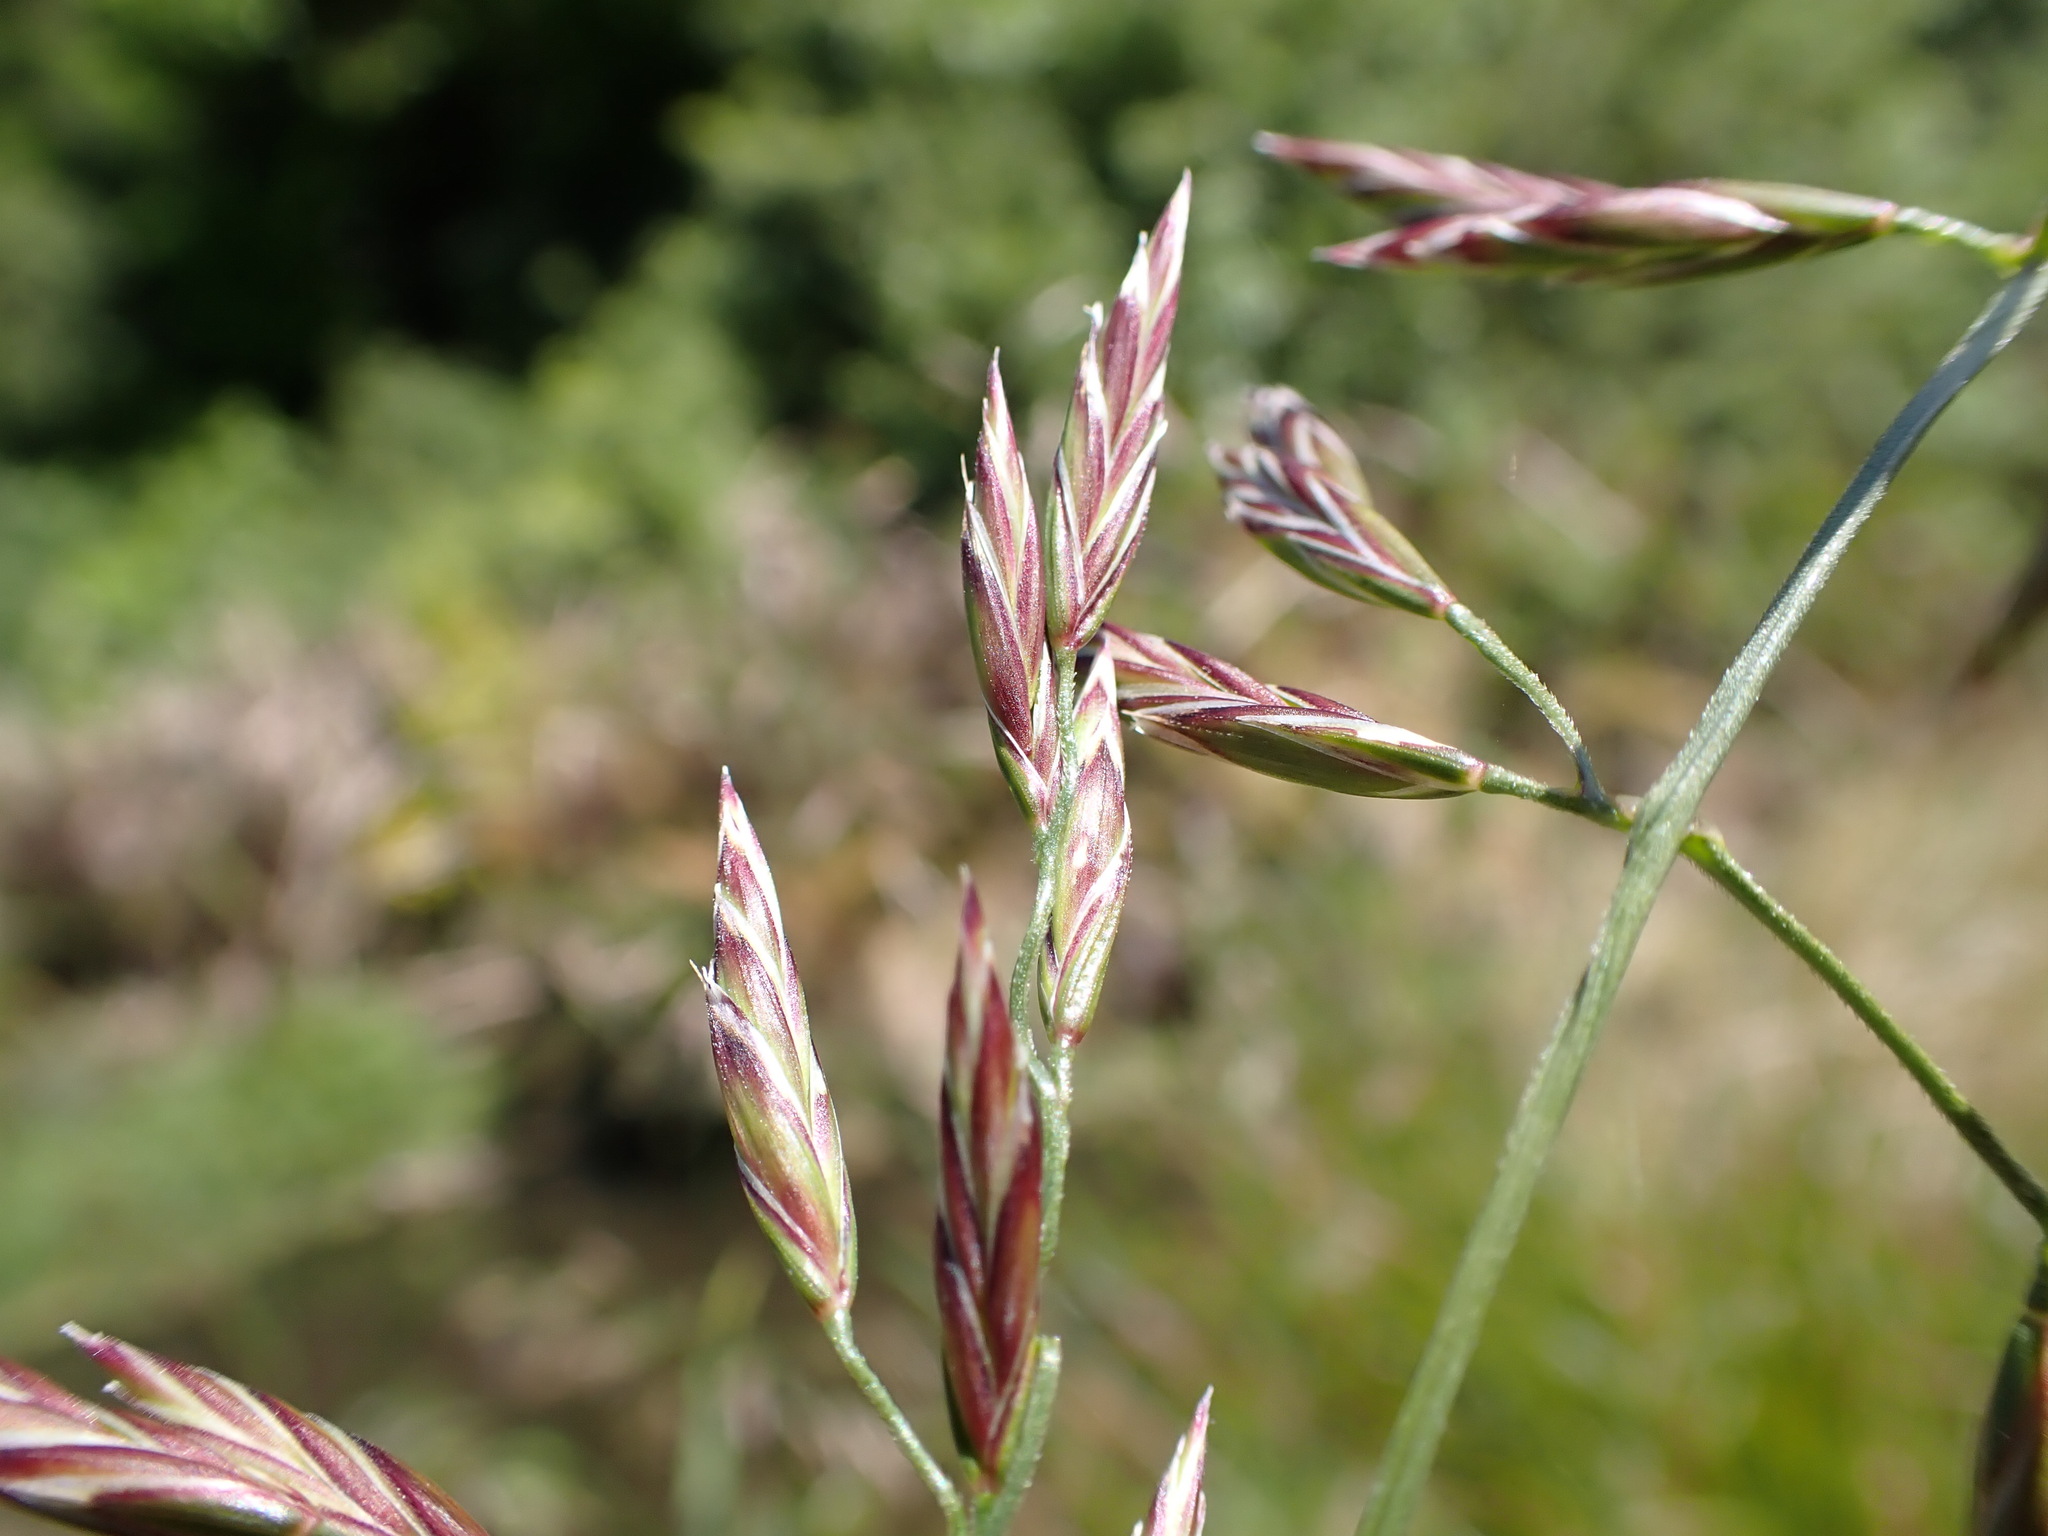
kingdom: Plantae
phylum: Tracheophyta
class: Liliopsida
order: Poales
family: Poaceae
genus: Lolium
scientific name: Lolium arundinaceum
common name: Reed fescue
